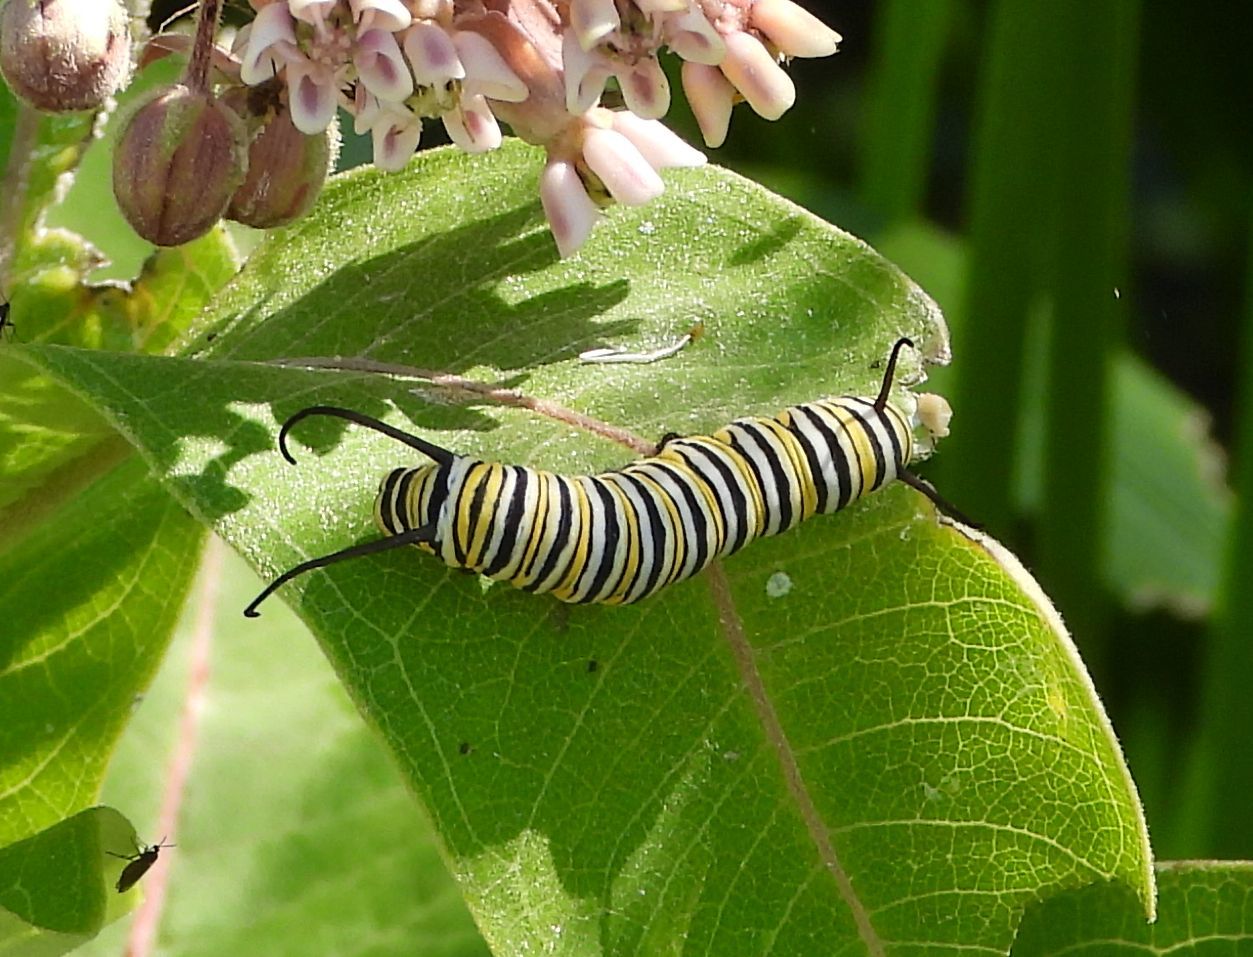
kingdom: Animalia
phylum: Arthropoda
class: Insecta
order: Lepidoptera
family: Nymphalidae
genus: Danaus
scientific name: Danaus plexippus
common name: Monarch
